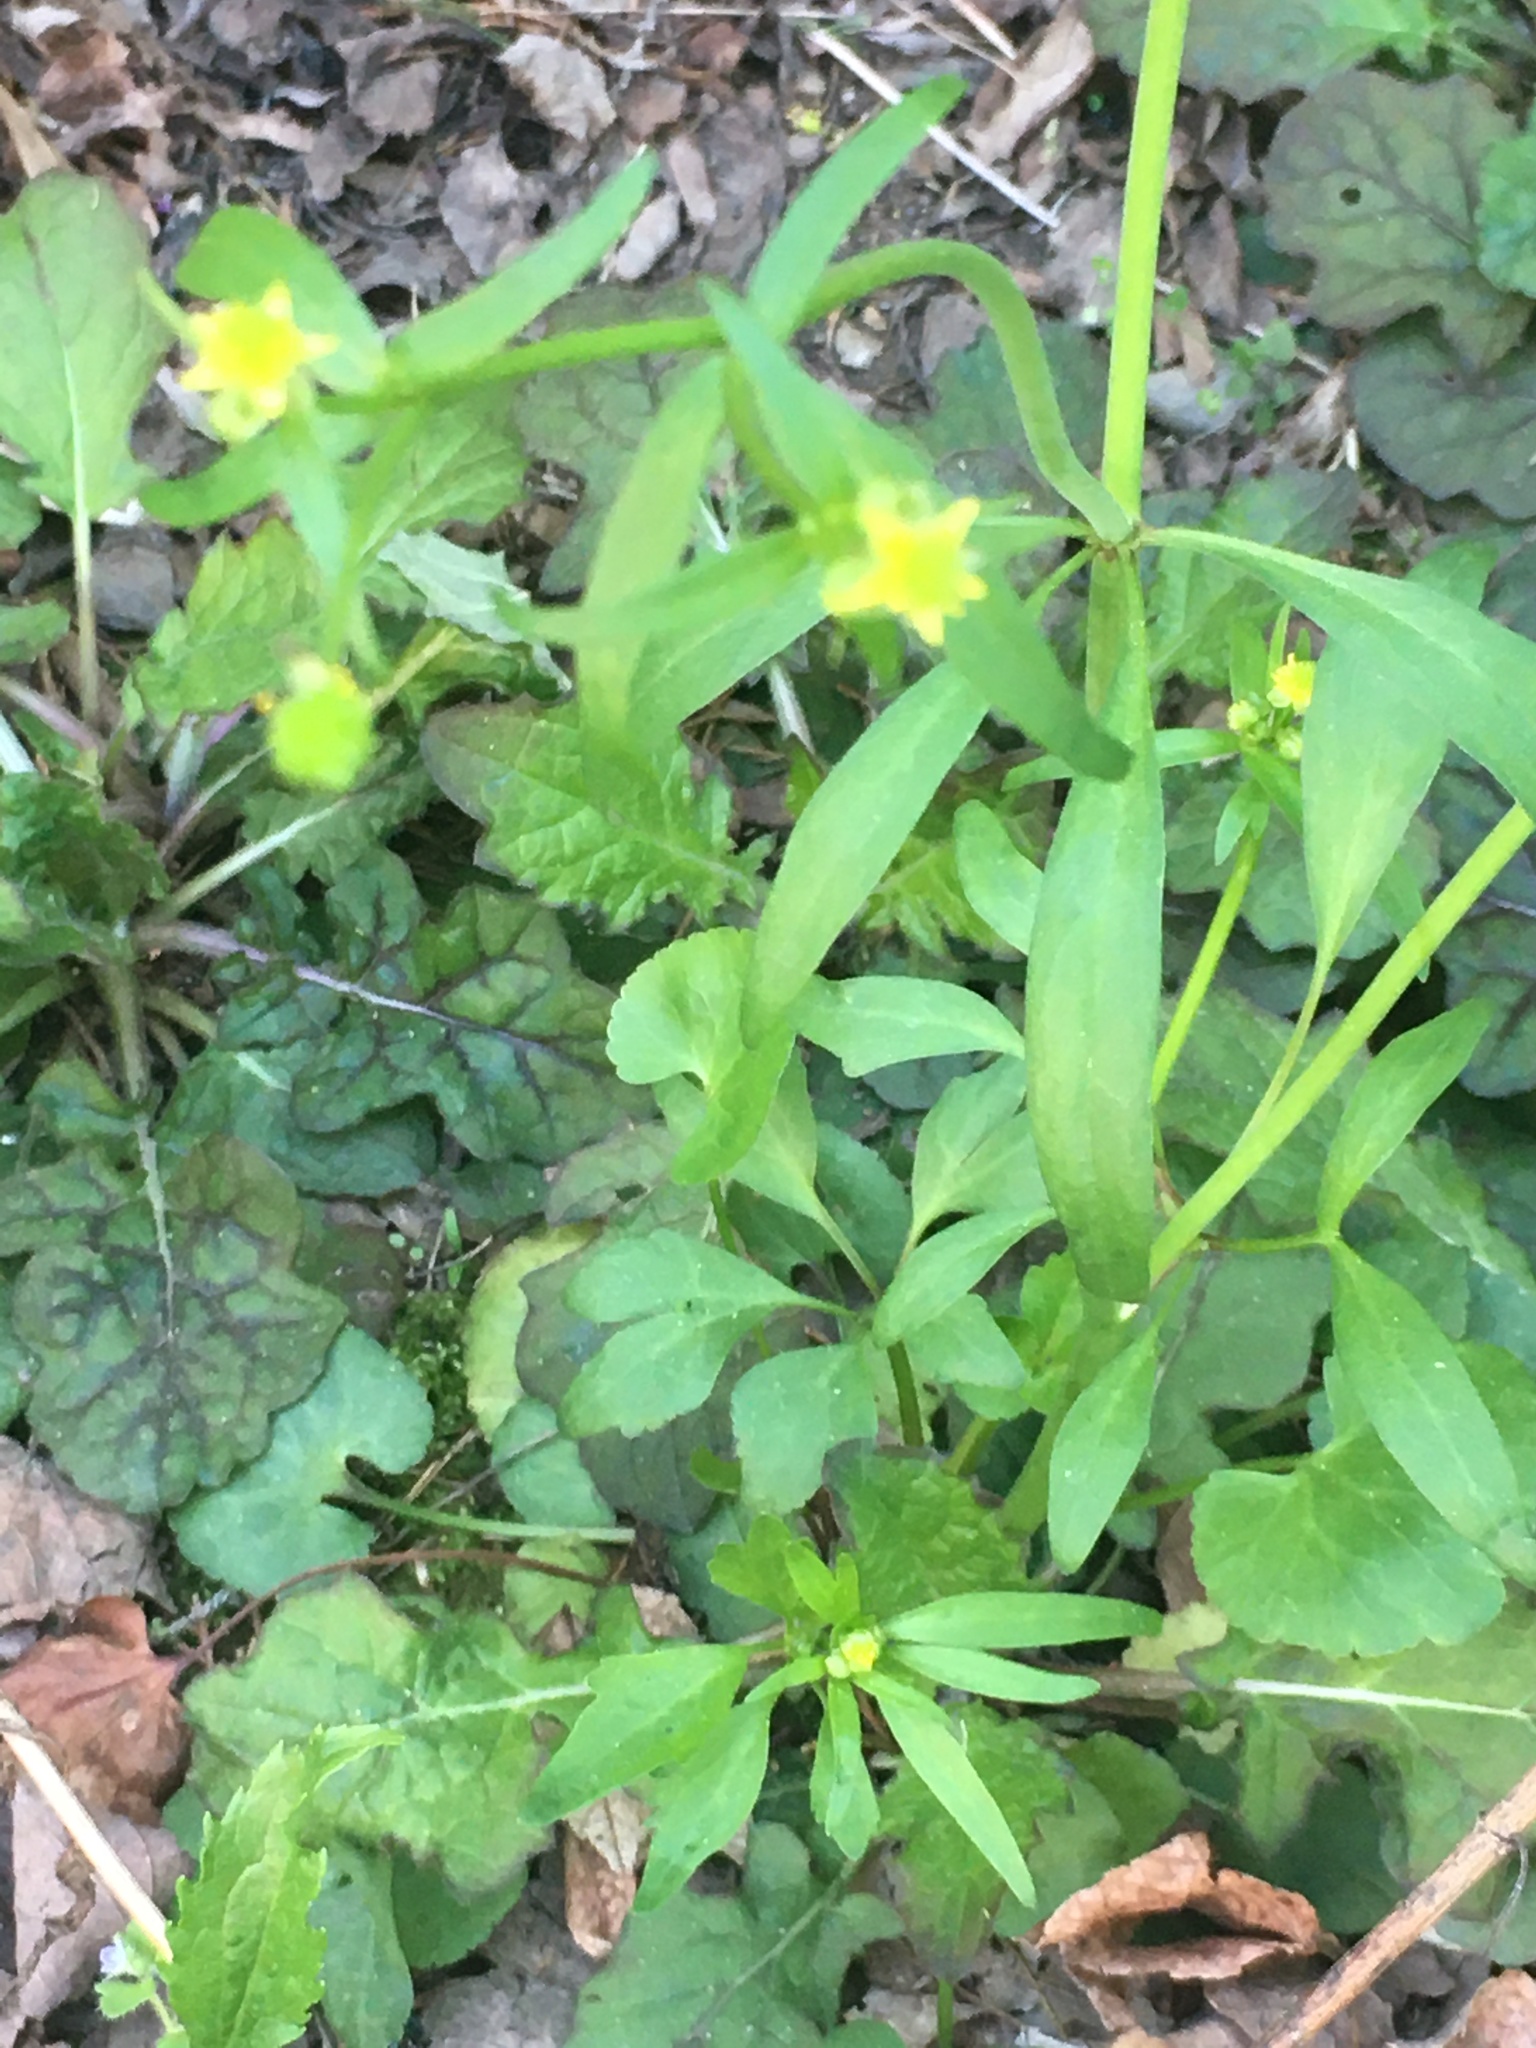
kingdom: Plantae
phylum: Tracheophyta
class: Magnoliopsida
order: Ranunculales
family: Ranunculaceae
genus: Ranunculus
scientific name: Ranunculus abortivus
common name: Early wood buttercup
